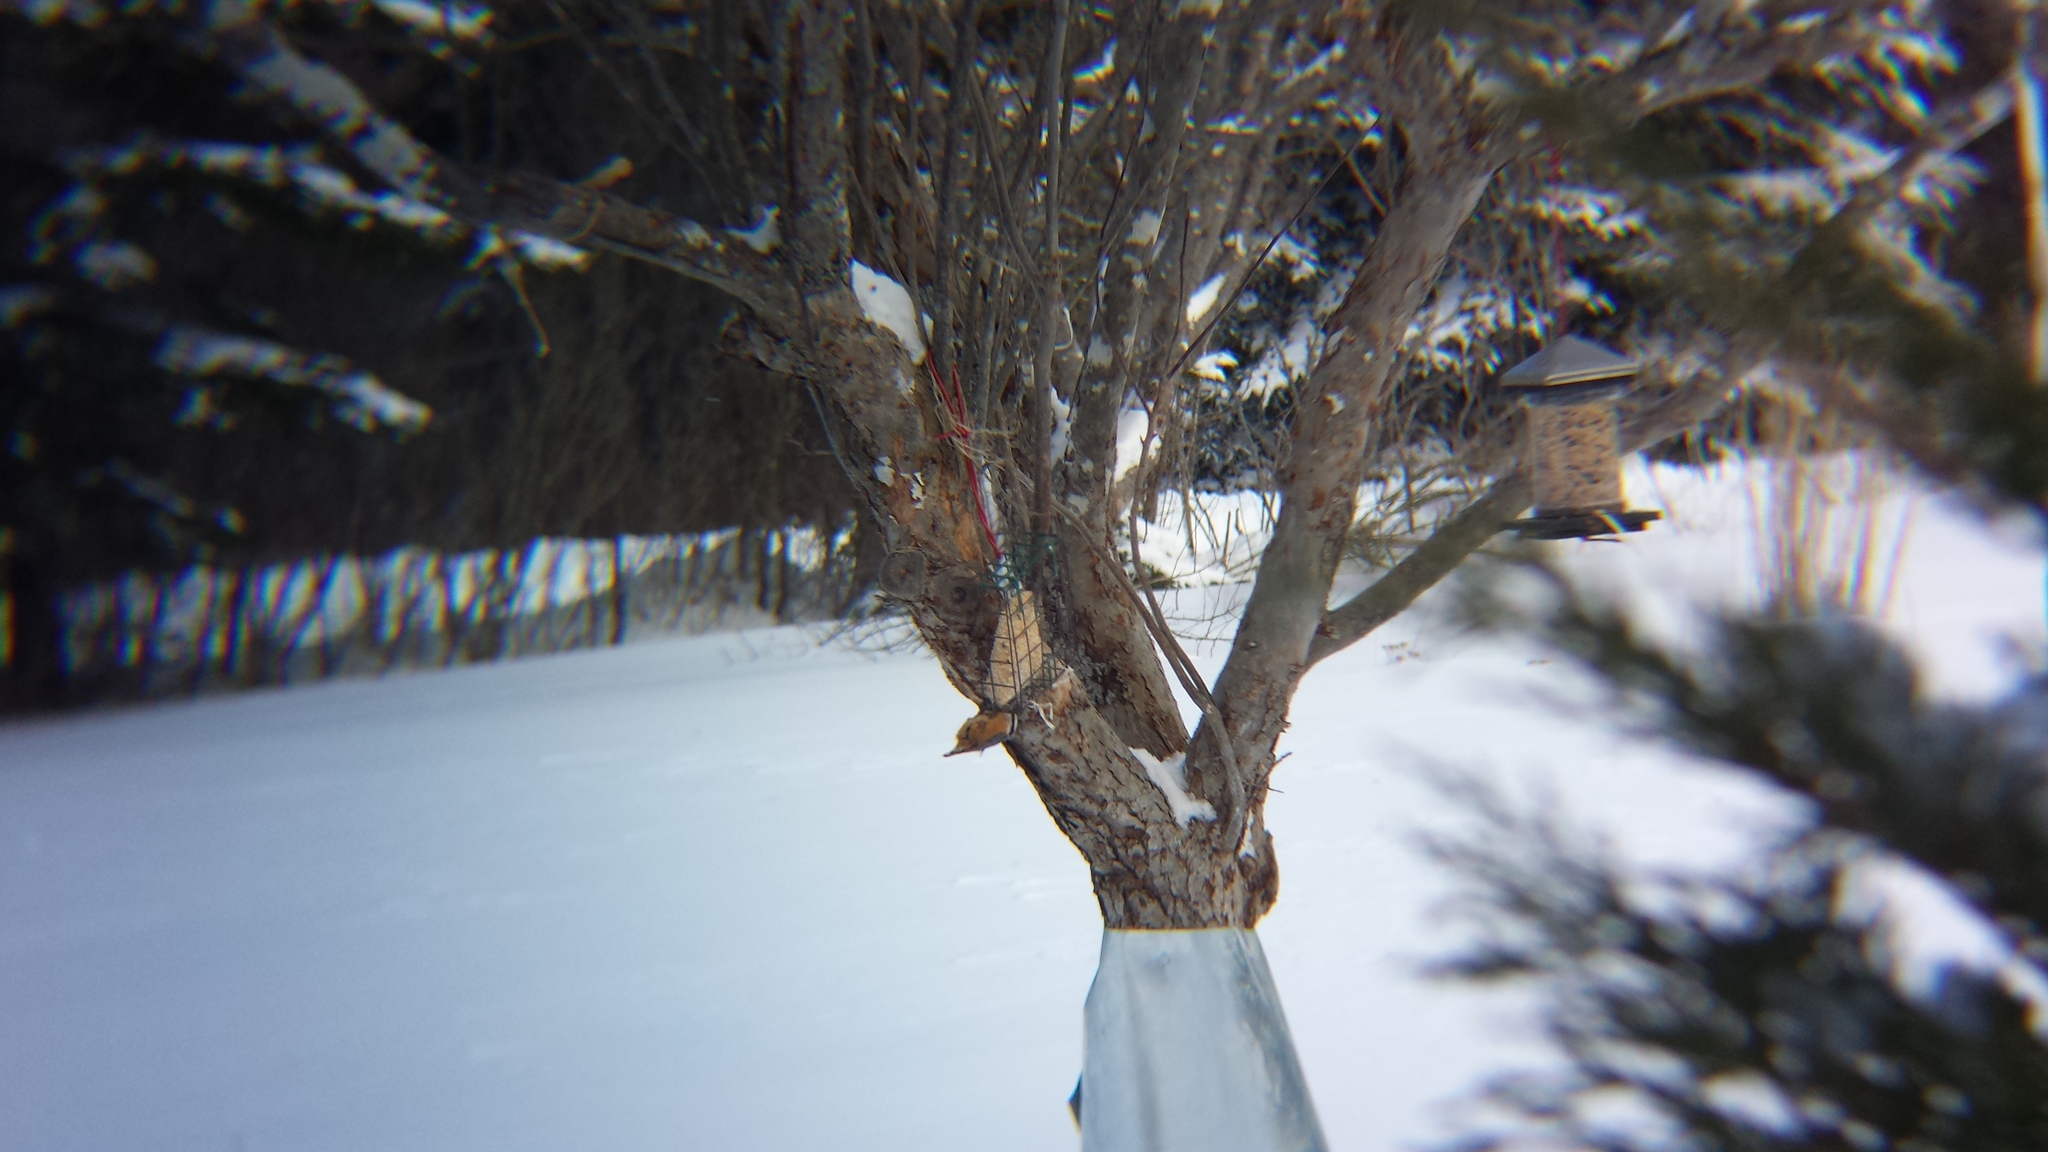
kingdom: Animalia
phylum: Chordata
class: Aves
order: Passeriformes
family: Sittidae
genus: Sitta
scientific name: Sitta canadensis
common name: Red-breasted nuthatch
